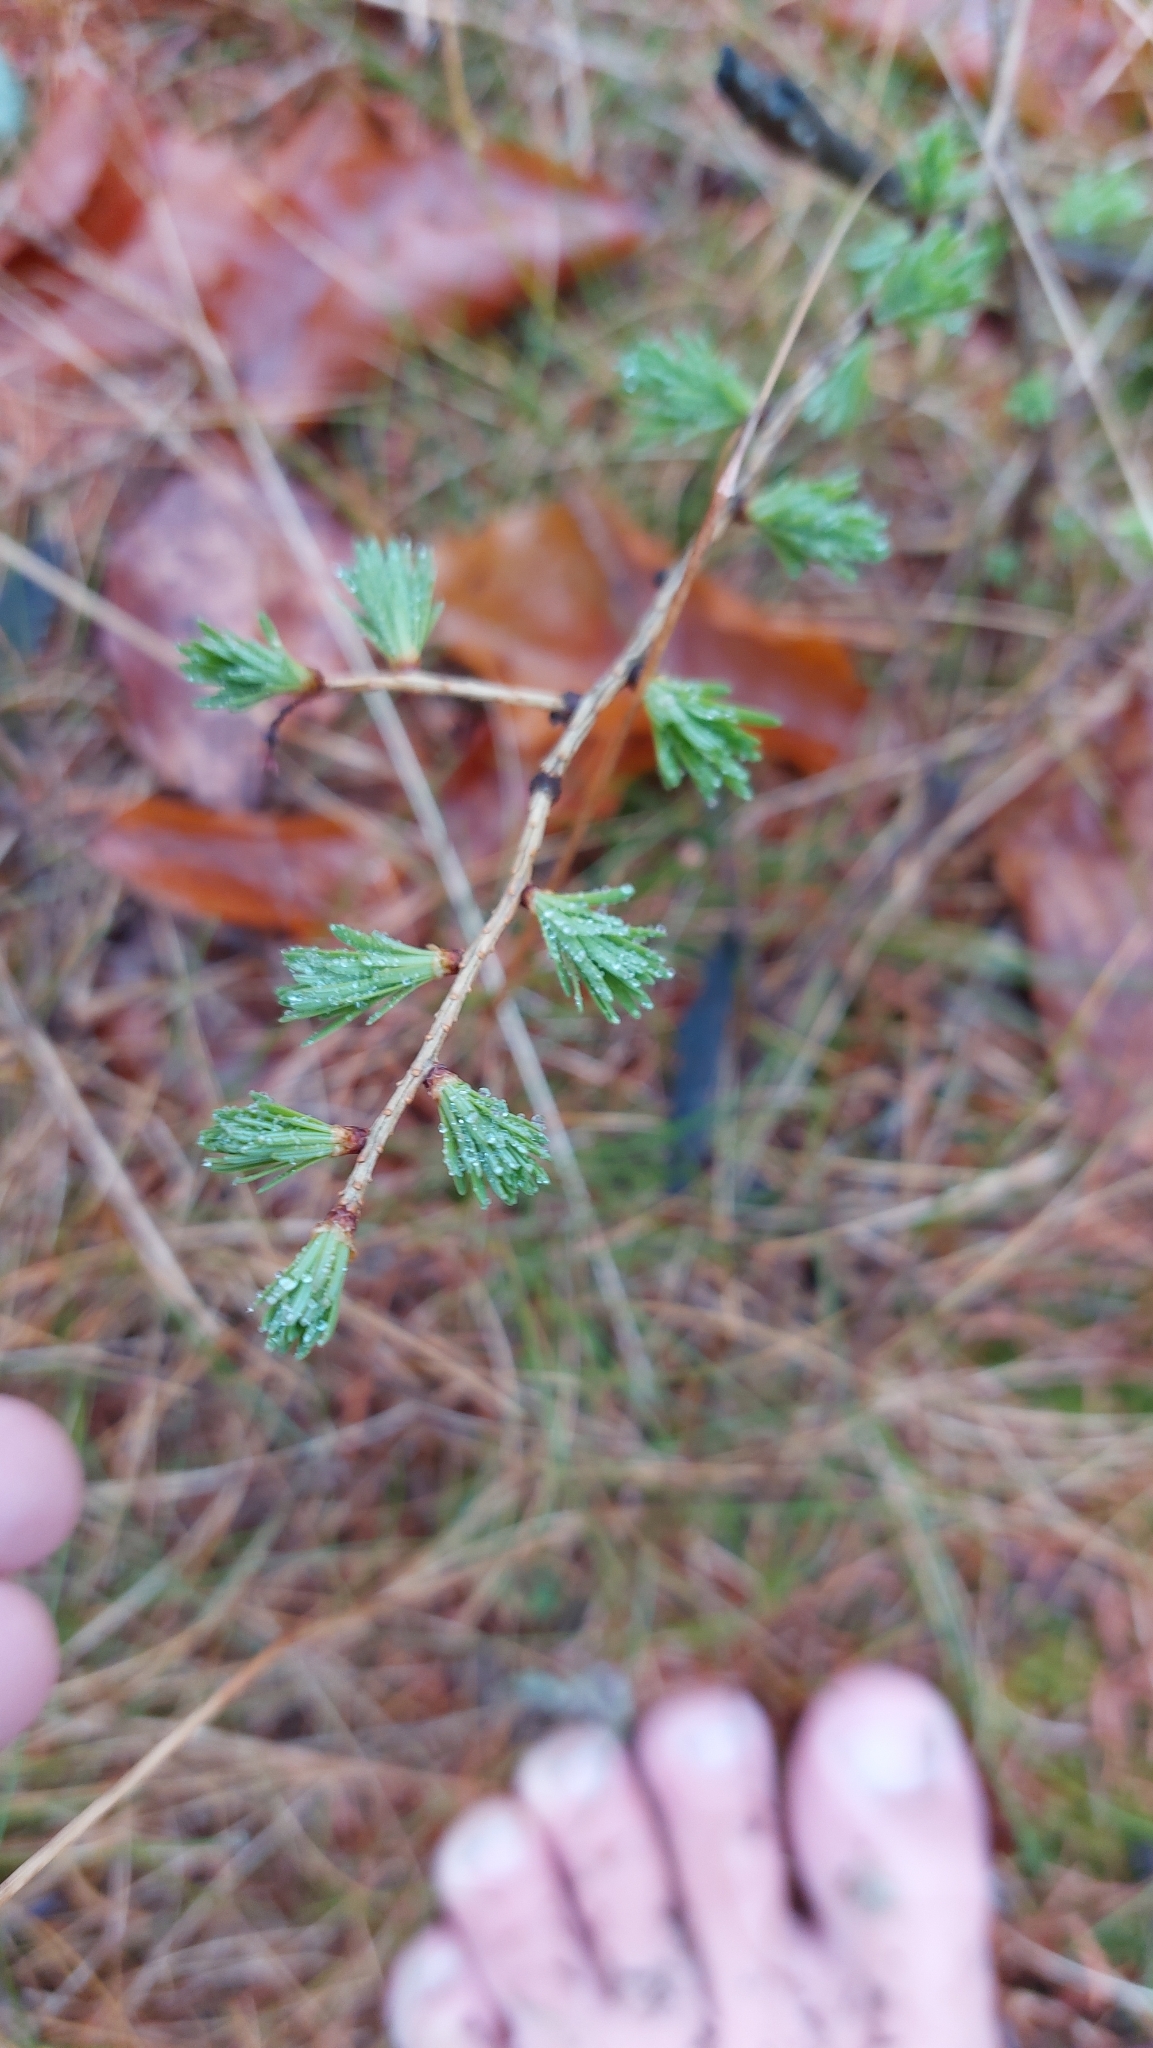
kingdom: Plantae
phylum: Tracheophyta
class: Pinopsida
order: Pinales
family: Pinaceae
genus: Larix
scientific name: Larix decidua
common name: European larch
